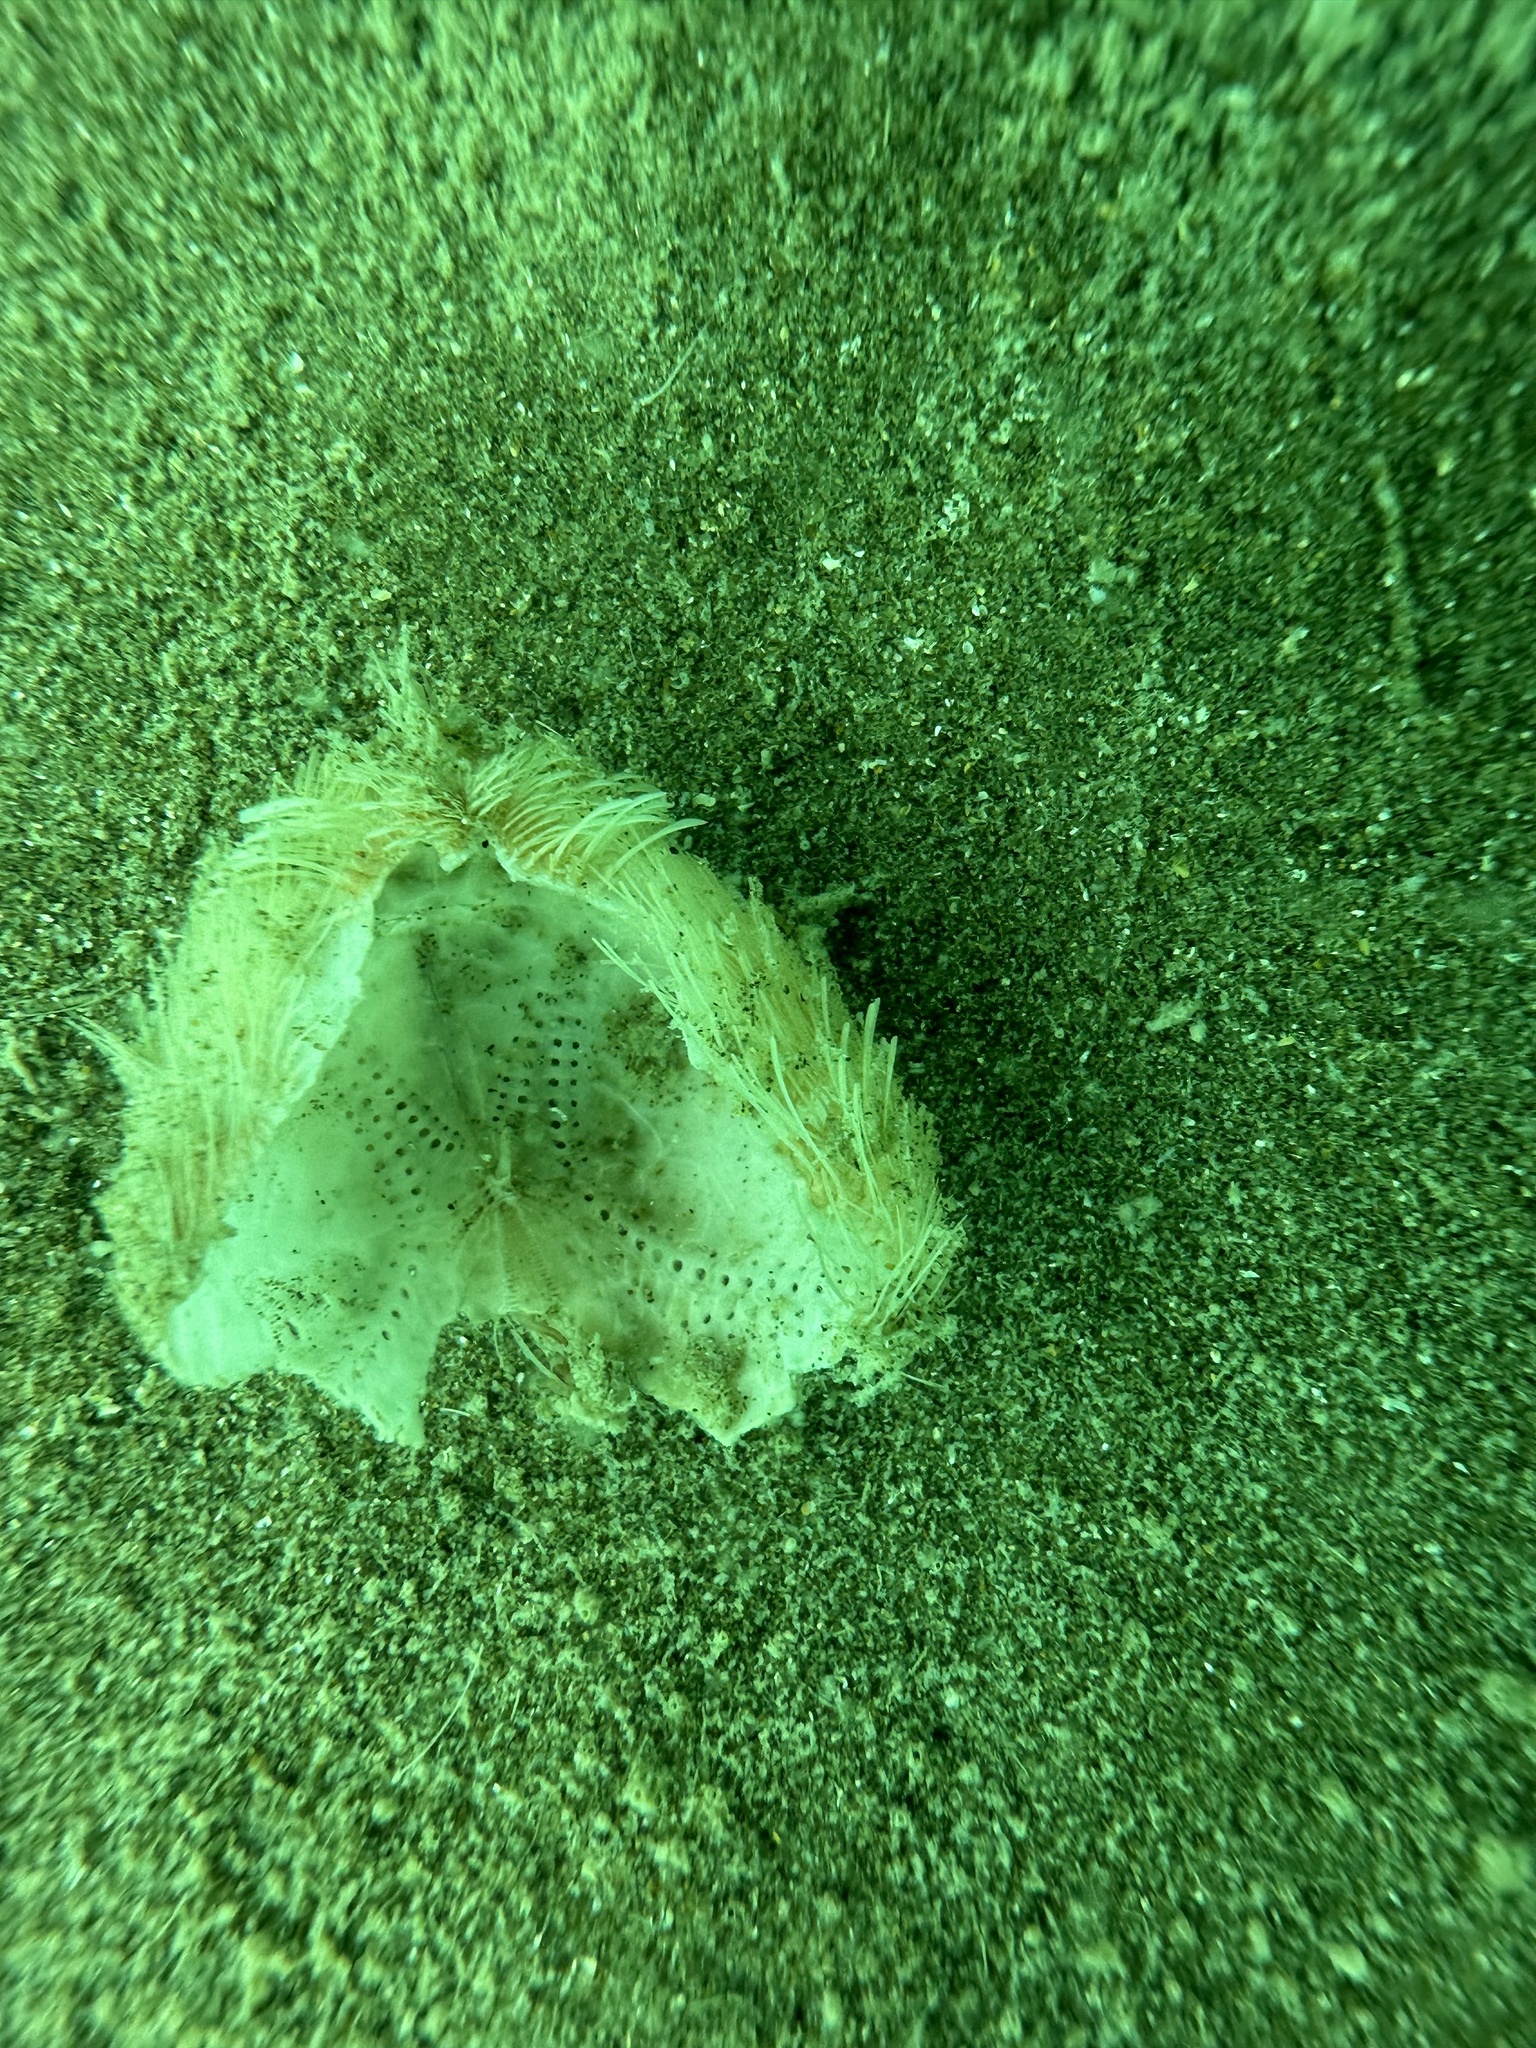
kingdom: Animalia
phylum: Echinodermata
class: Echinoidea
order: Spatangoida
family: Loveniidae
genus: Echinocardium
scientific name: Echinocardium cordatum
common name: Heart-urchin
